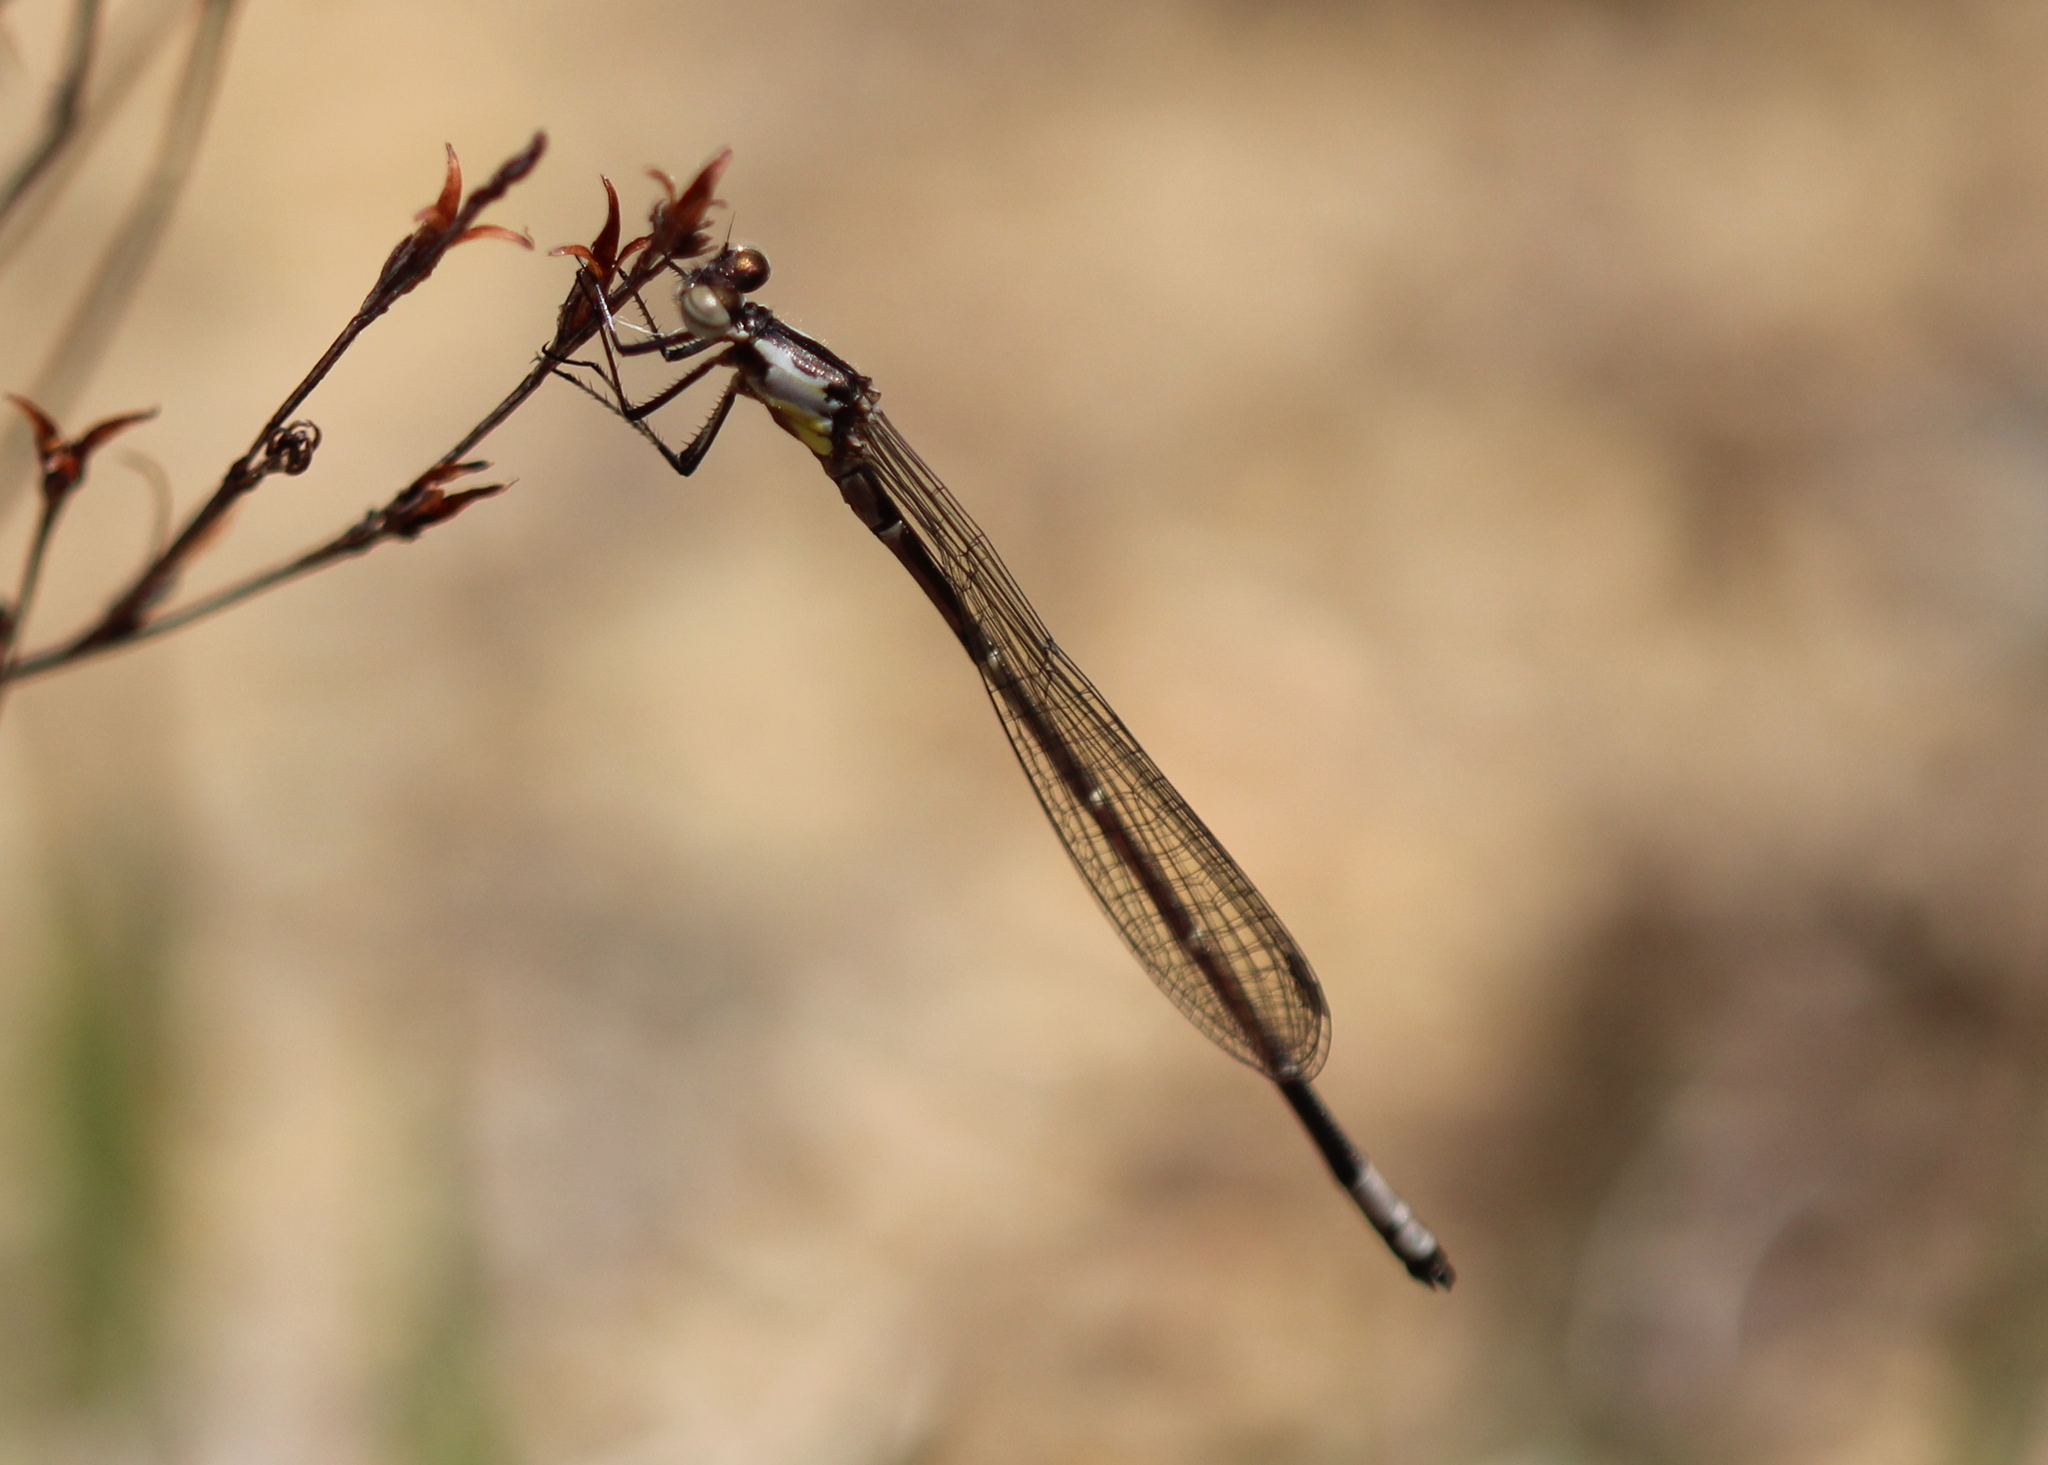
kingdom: Animalia
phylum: Arthropoda
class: Insecta
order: Odonata
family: Coenagrionidae
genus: Chromagrion
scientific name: Chromagrion conditum
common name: Aurora damsel
